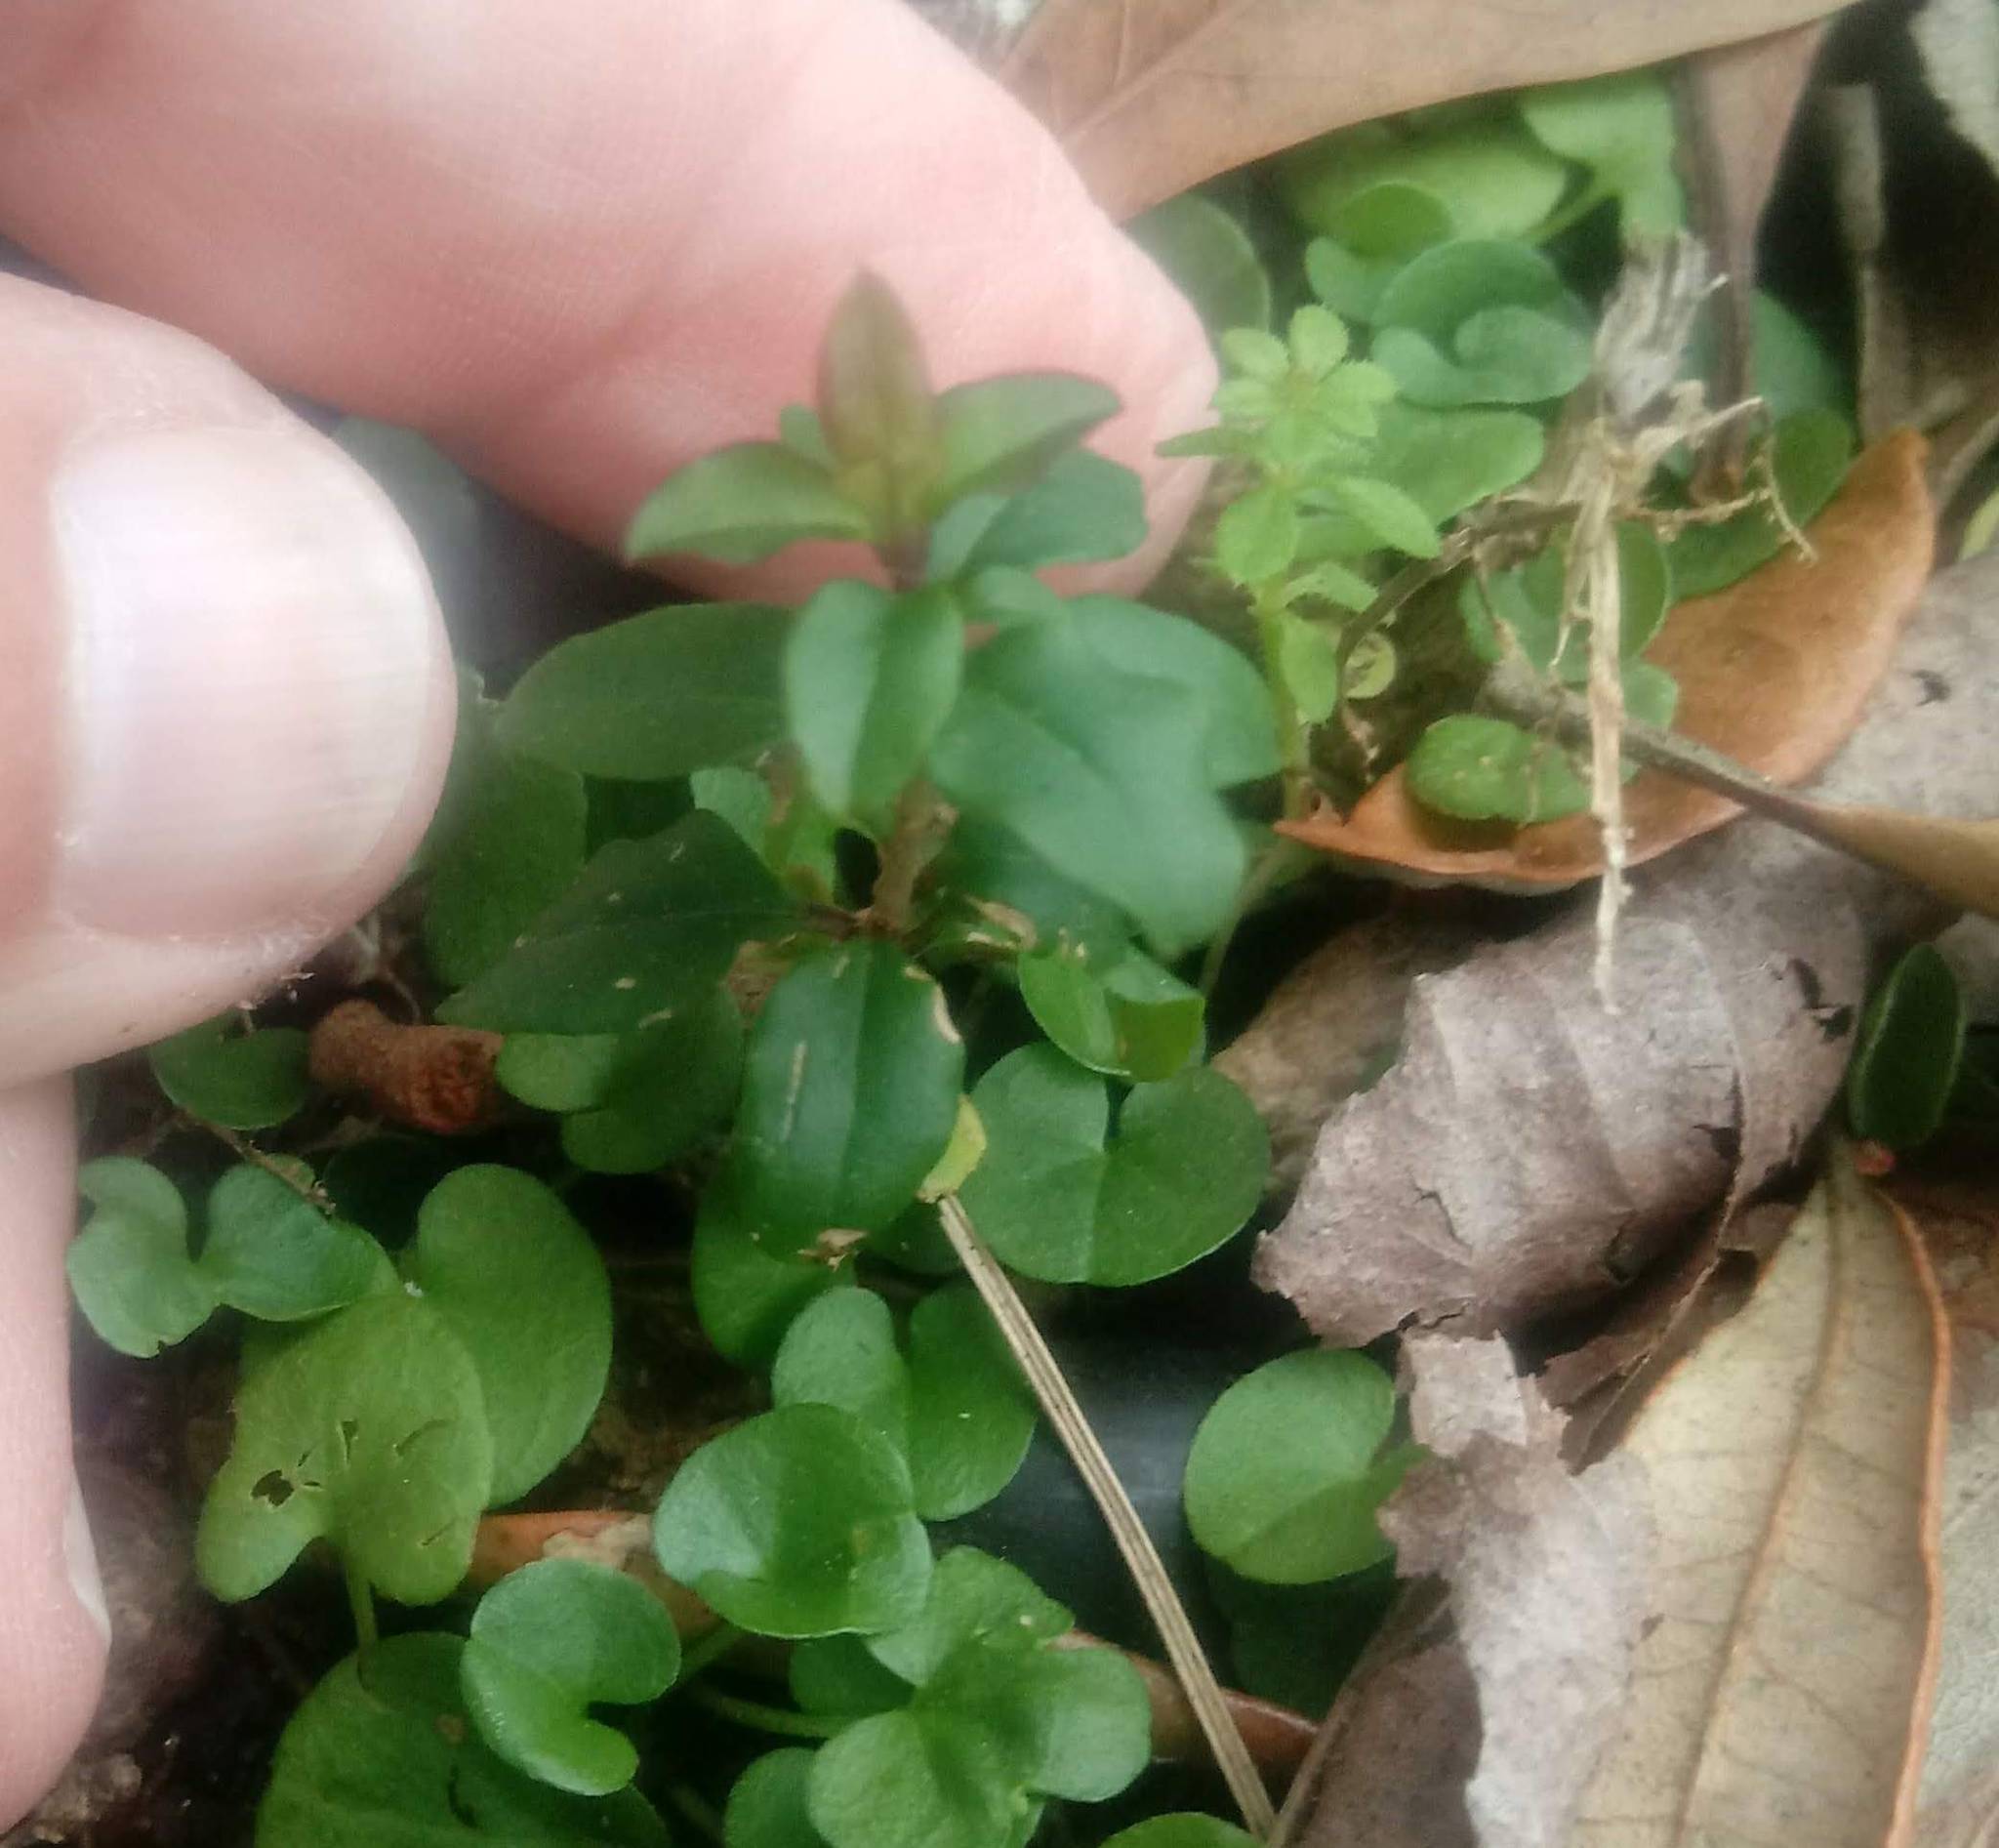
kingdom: Plantae
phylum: Tracheophyta
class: Magnoliopsida
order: Lamiales
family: Oleaceae
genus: Ligustrum
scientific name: Ligustrum sinense
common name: Chinese privet
